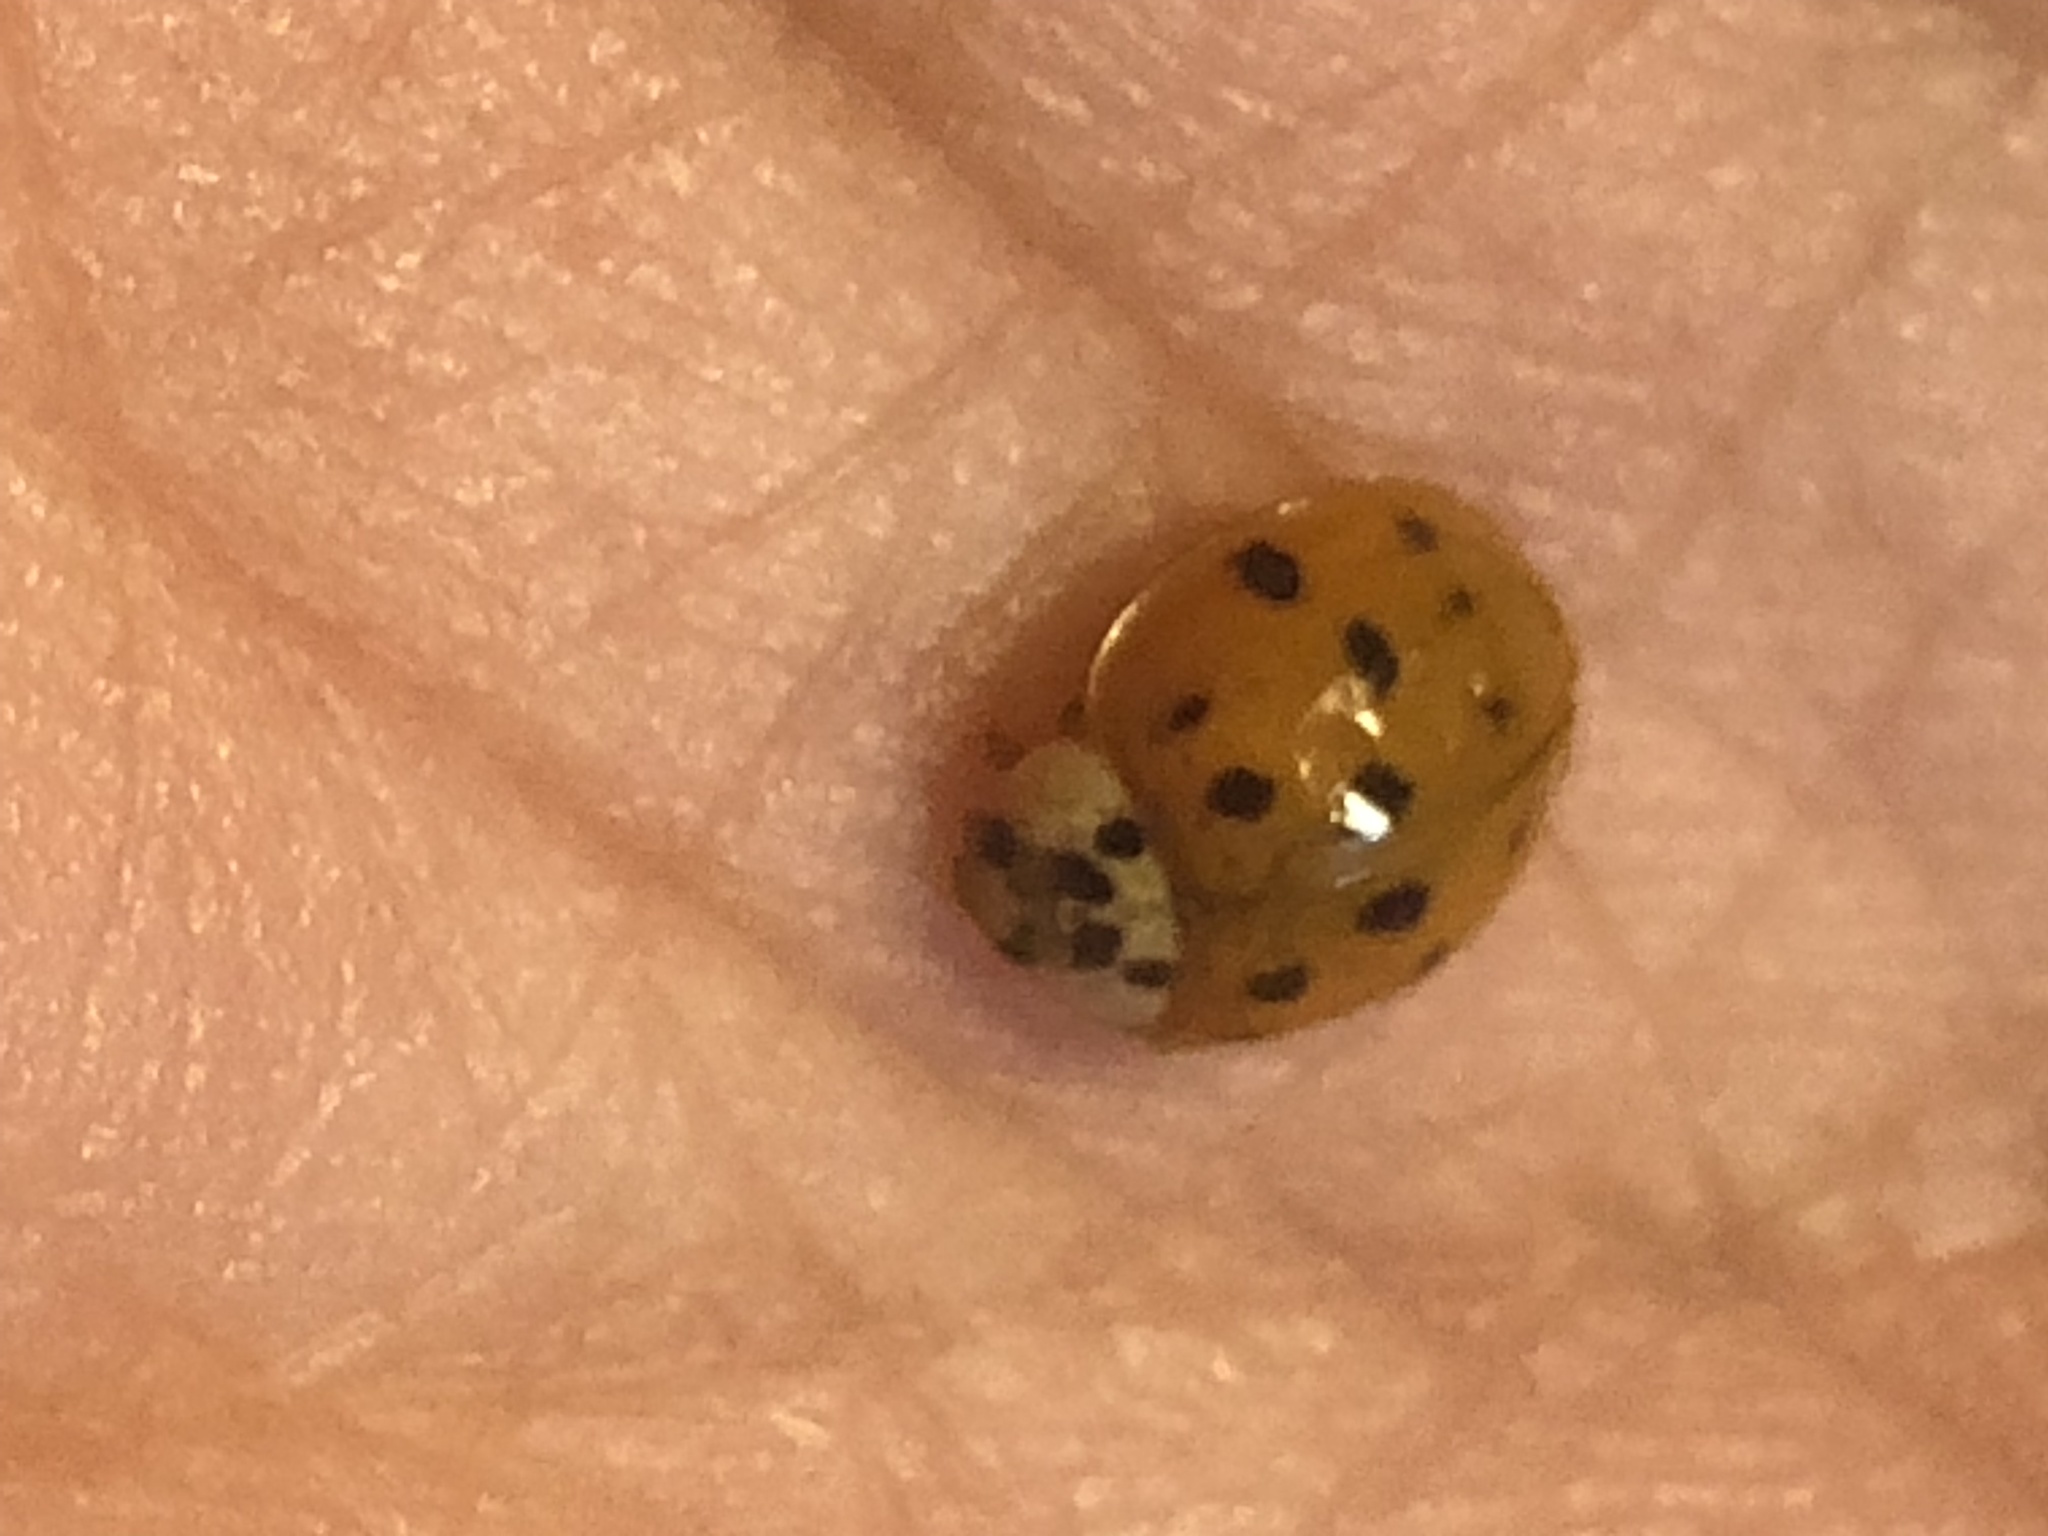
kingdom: Animalia
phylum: Arthropoda
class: Insecta
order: Coleoptera
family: Coccinellidae
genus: Harmonia
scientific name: Harmonia axyridis
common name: Harlequin ladybird
